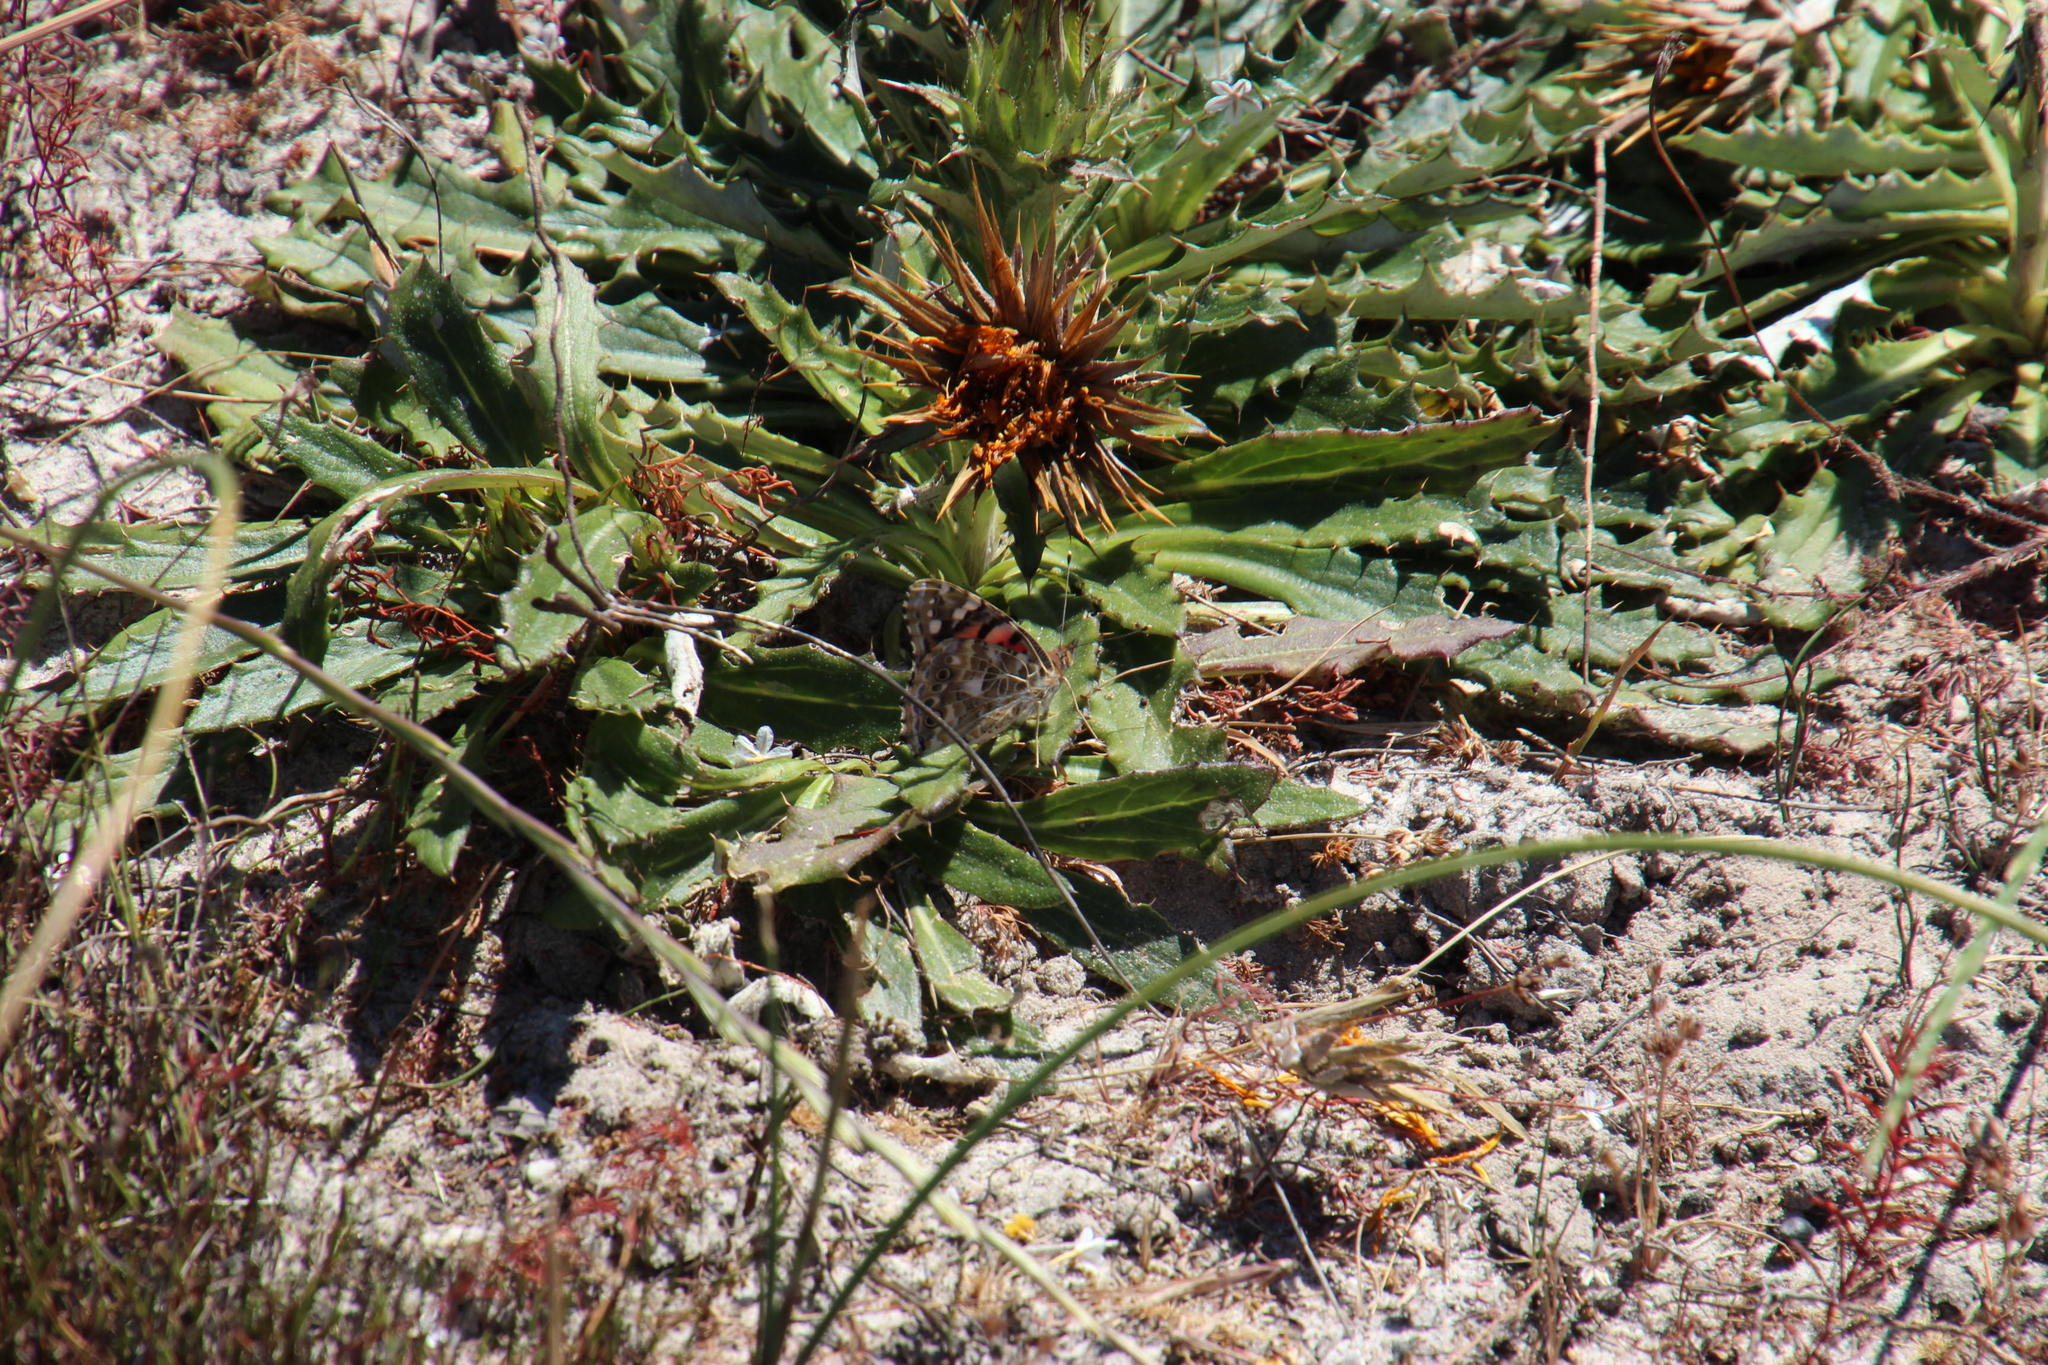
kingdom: Plantae
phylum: Tracheophyta
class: Magnoliopsida
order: Asterales
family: Asteraceae
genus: Berkheya
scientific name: Berkheya armata
